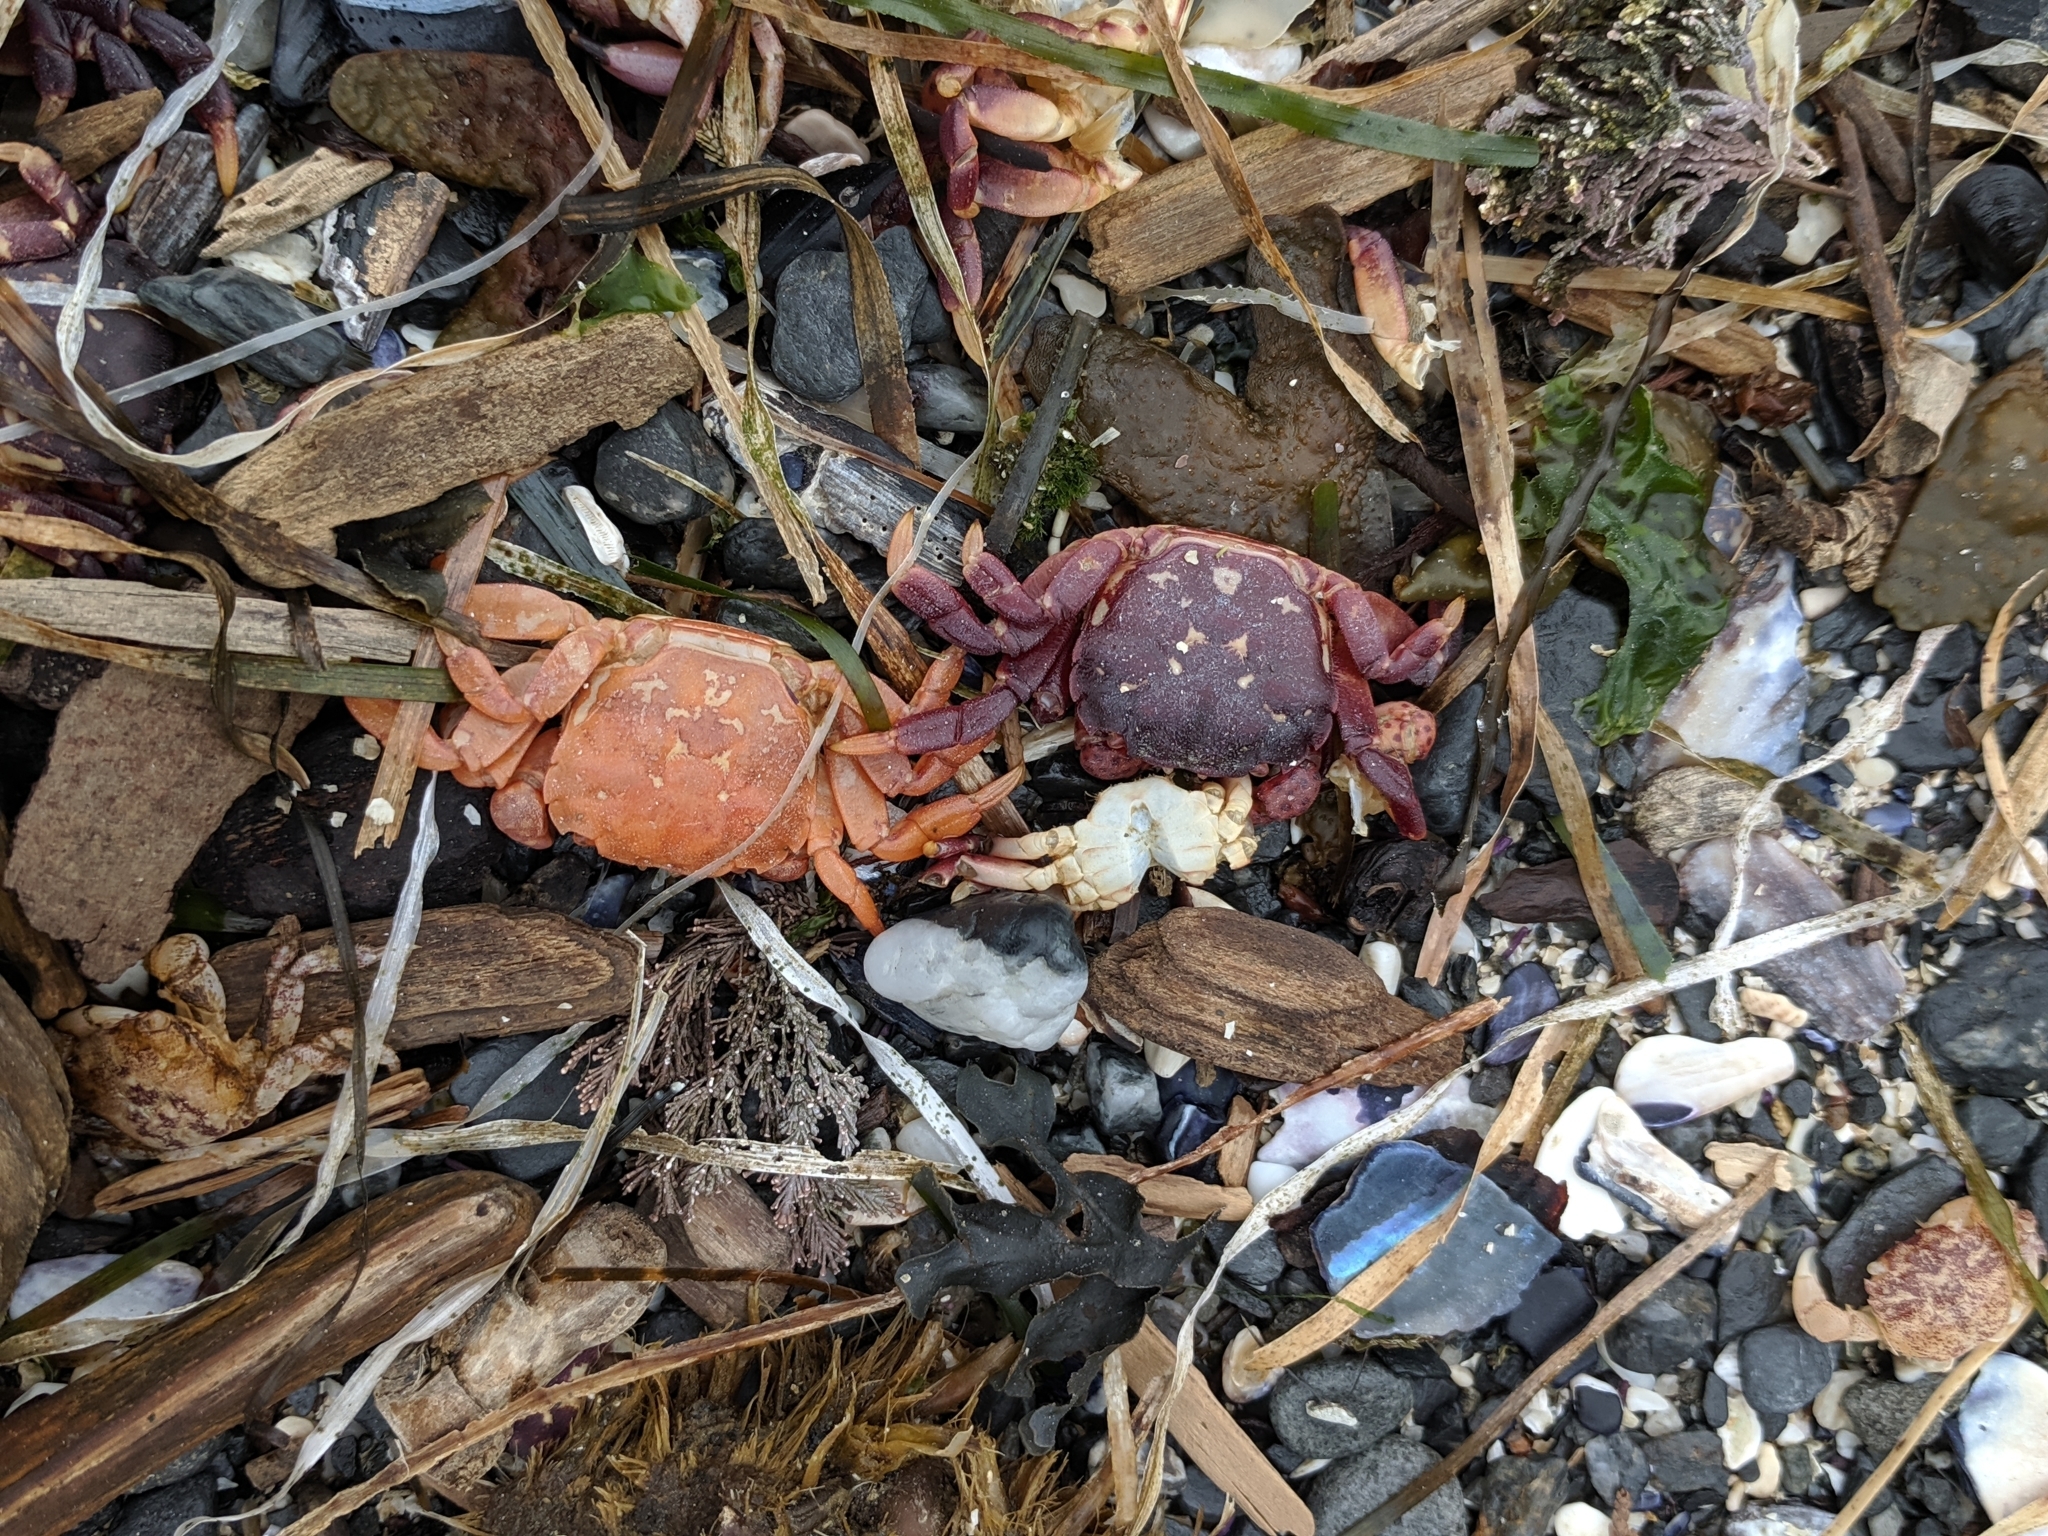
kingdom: Animalia
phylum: Arthropoda
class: Malacostraca
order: Decapoda
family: Varunidae
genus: Hemigrapsus
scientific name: Hemigrapsus nudus
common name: Purple shore crab
